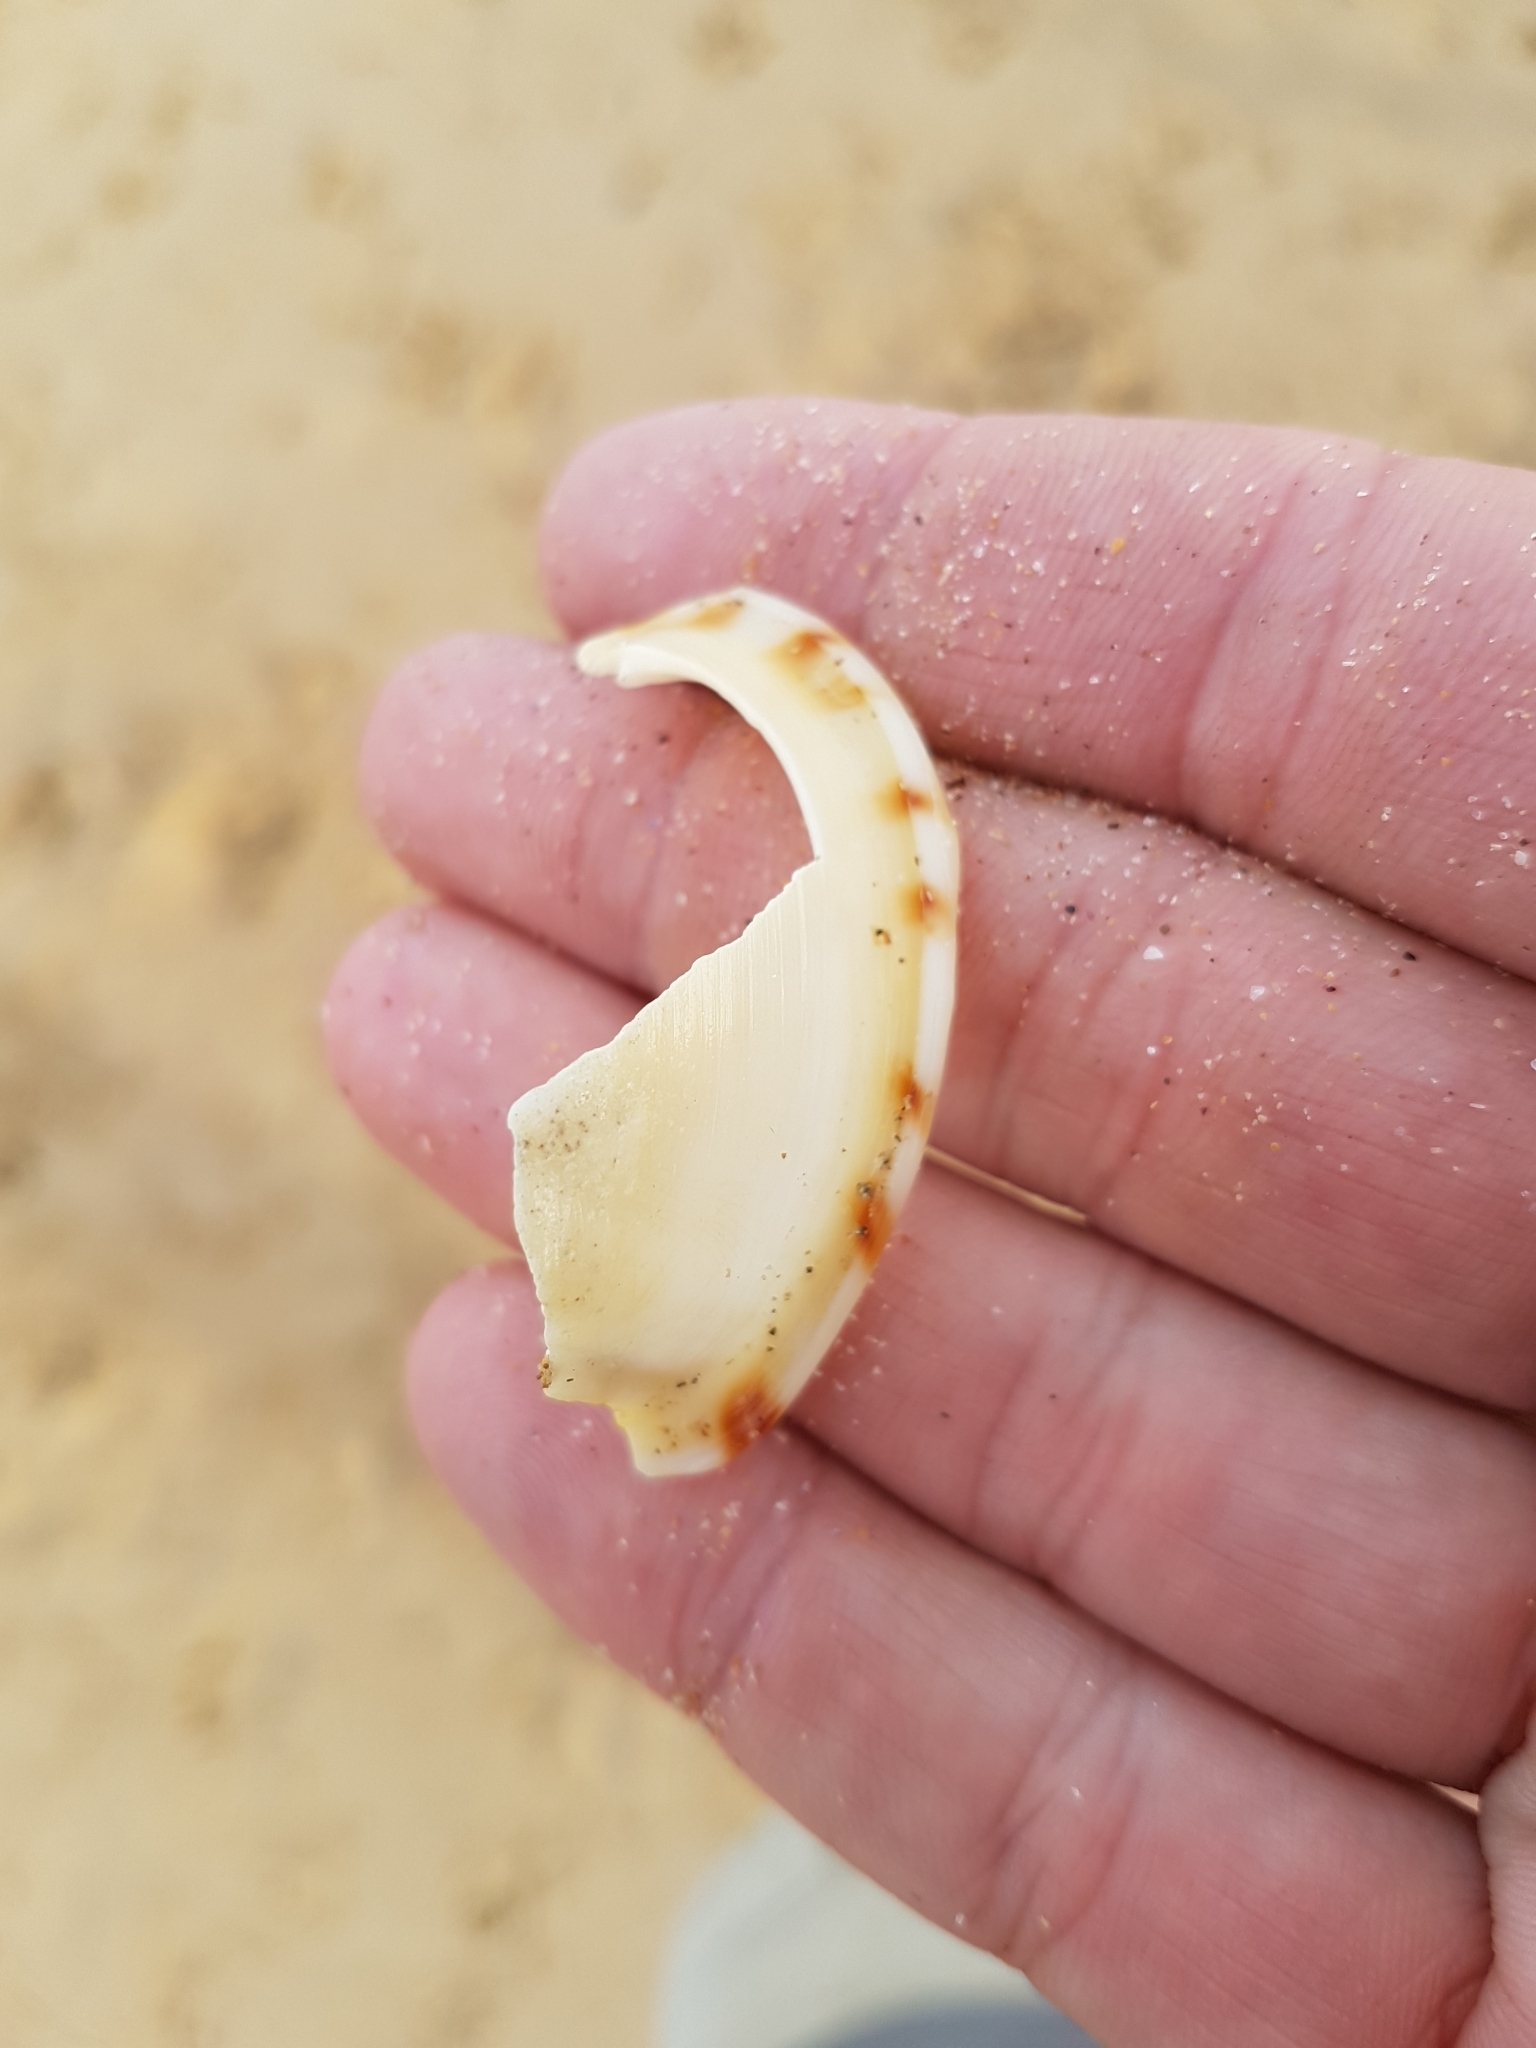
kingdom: Animalia
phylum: Mollusca
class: Gastropoda
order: Littorinimorpha
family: Cassidae
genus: Semicassis
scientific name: Semicassis pyrum
